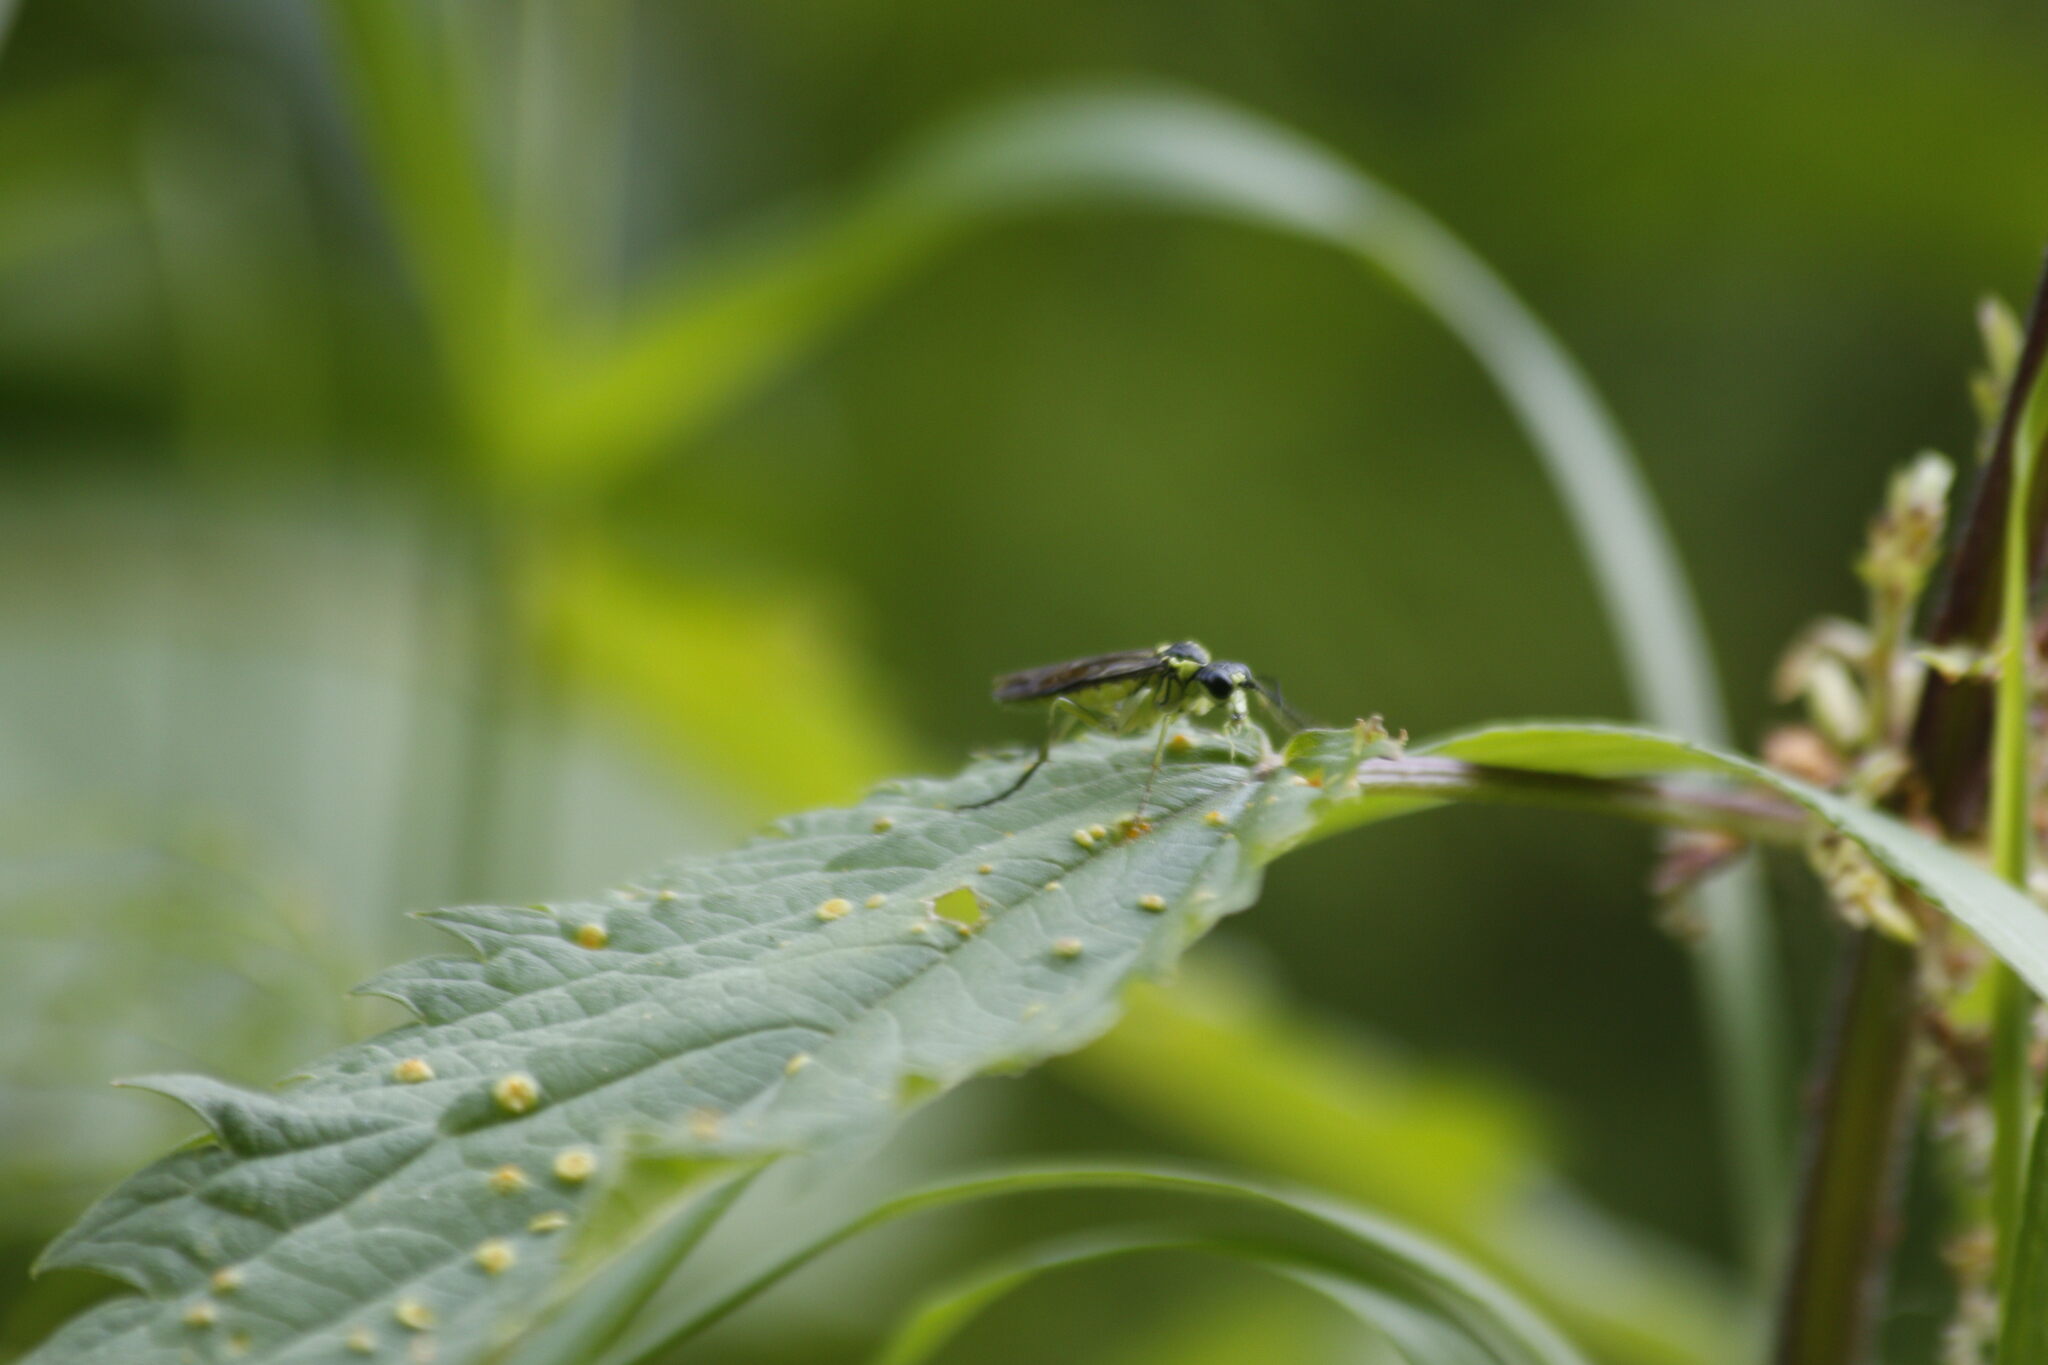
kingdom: Animalia
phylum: Arthropoda
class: Insecta
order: Hymenoptera
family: Tenthredinidae
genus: Tenthredo
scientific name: Tenthredo mesomela
